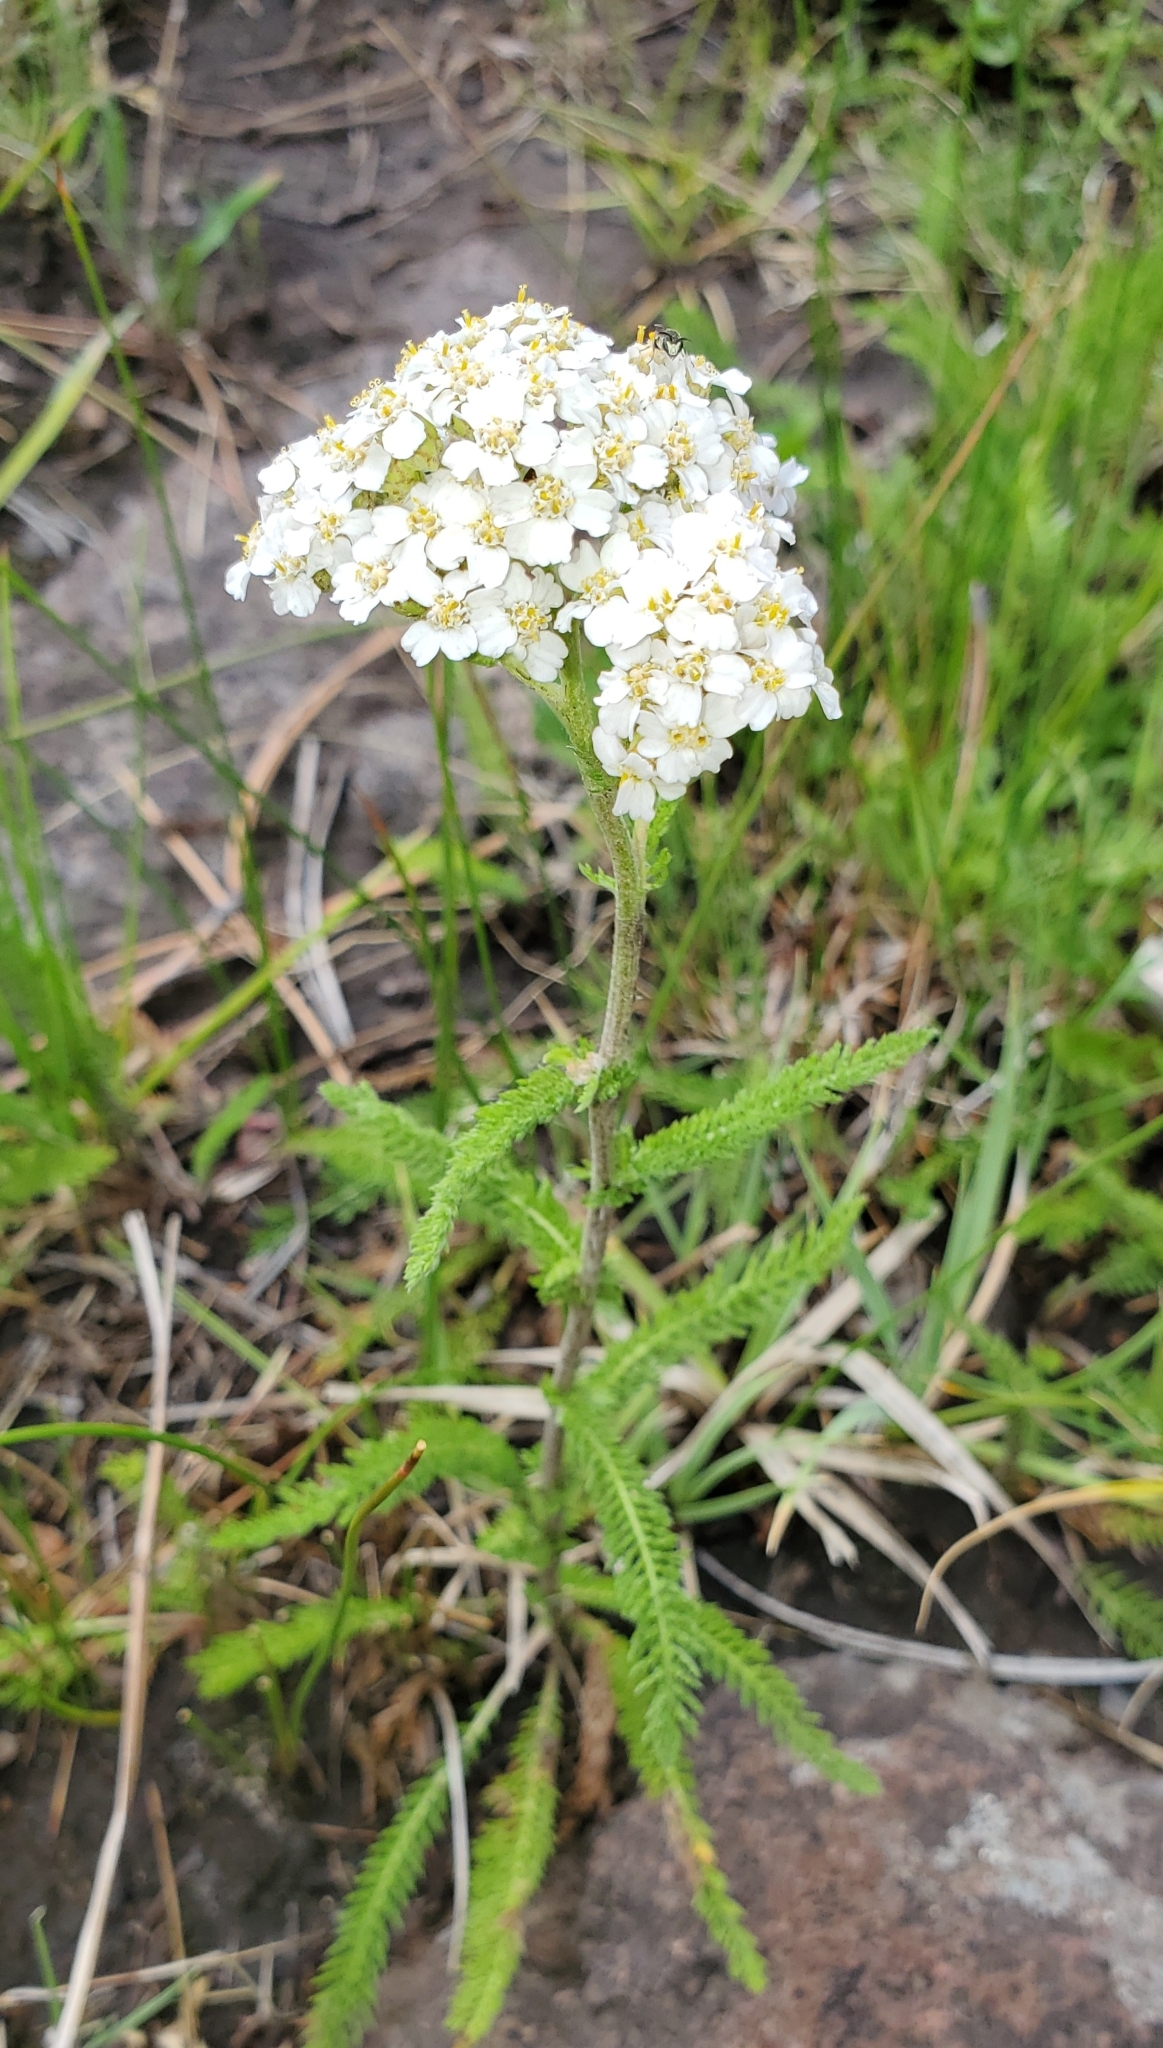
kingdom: Plantae
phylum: Tracheophyta
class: Magnoliopsida
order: Asterales
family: Asteraceae
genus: Achillea
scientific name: Achillea millefolium
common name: Yarrow
